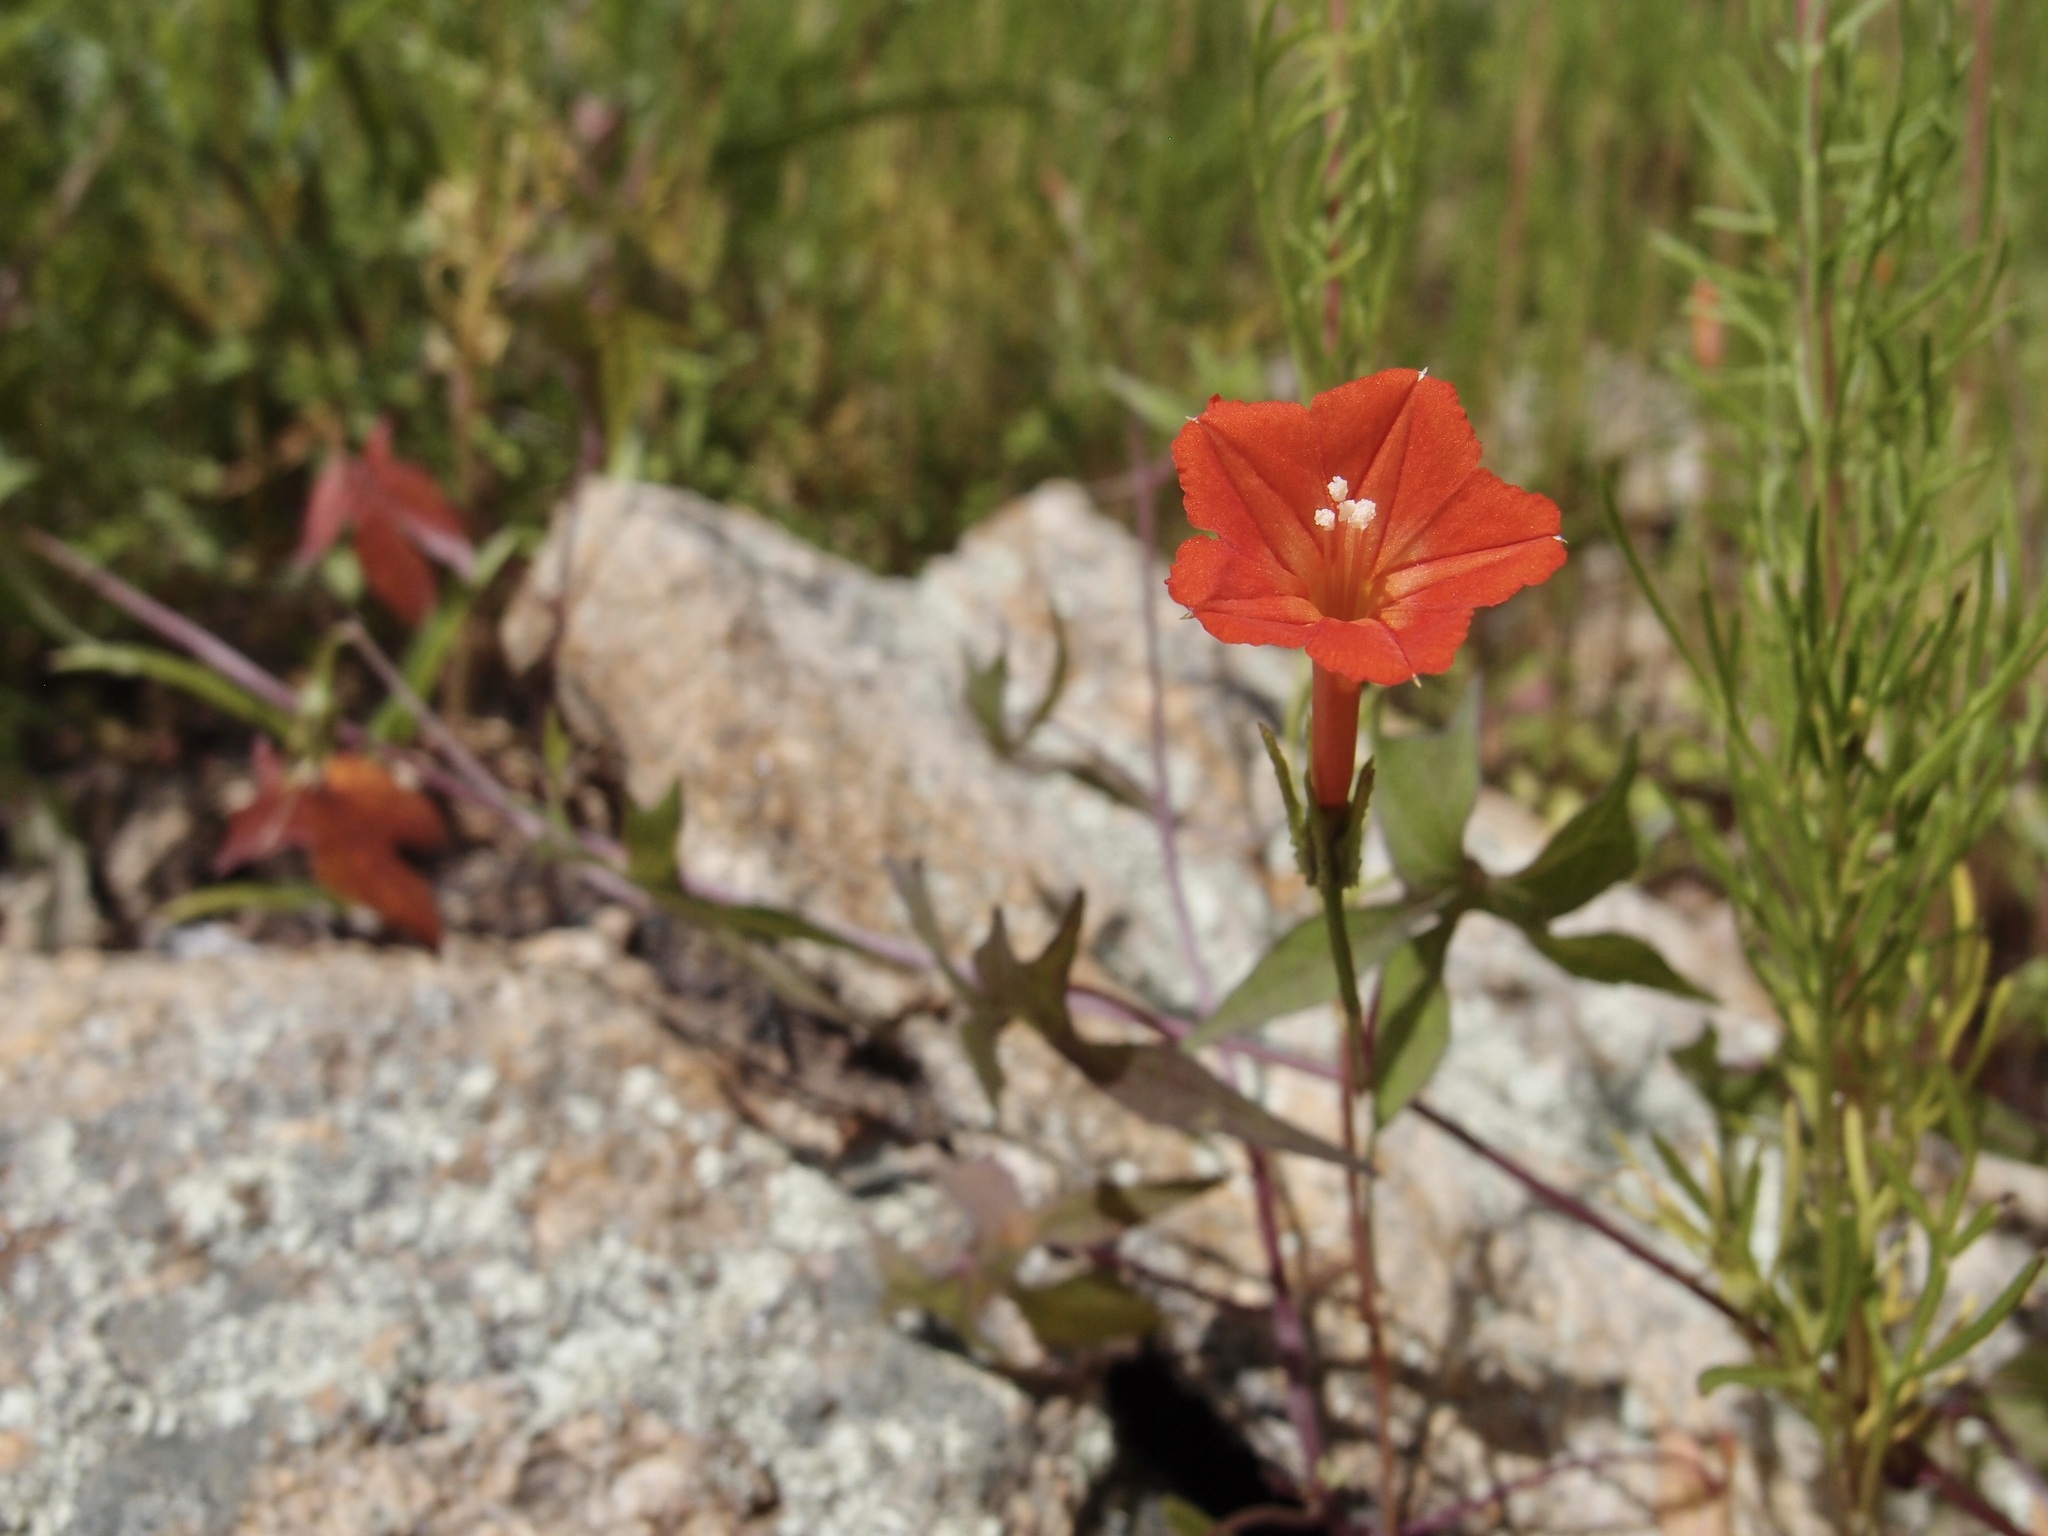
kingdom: Plantae
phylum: Tracheophyta
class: Magnoliopsida
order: Solanales
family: Convolvulaceae
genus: Ipomoea
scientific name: Ipomoea cristulata
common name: Trans-pecos morning-glory
